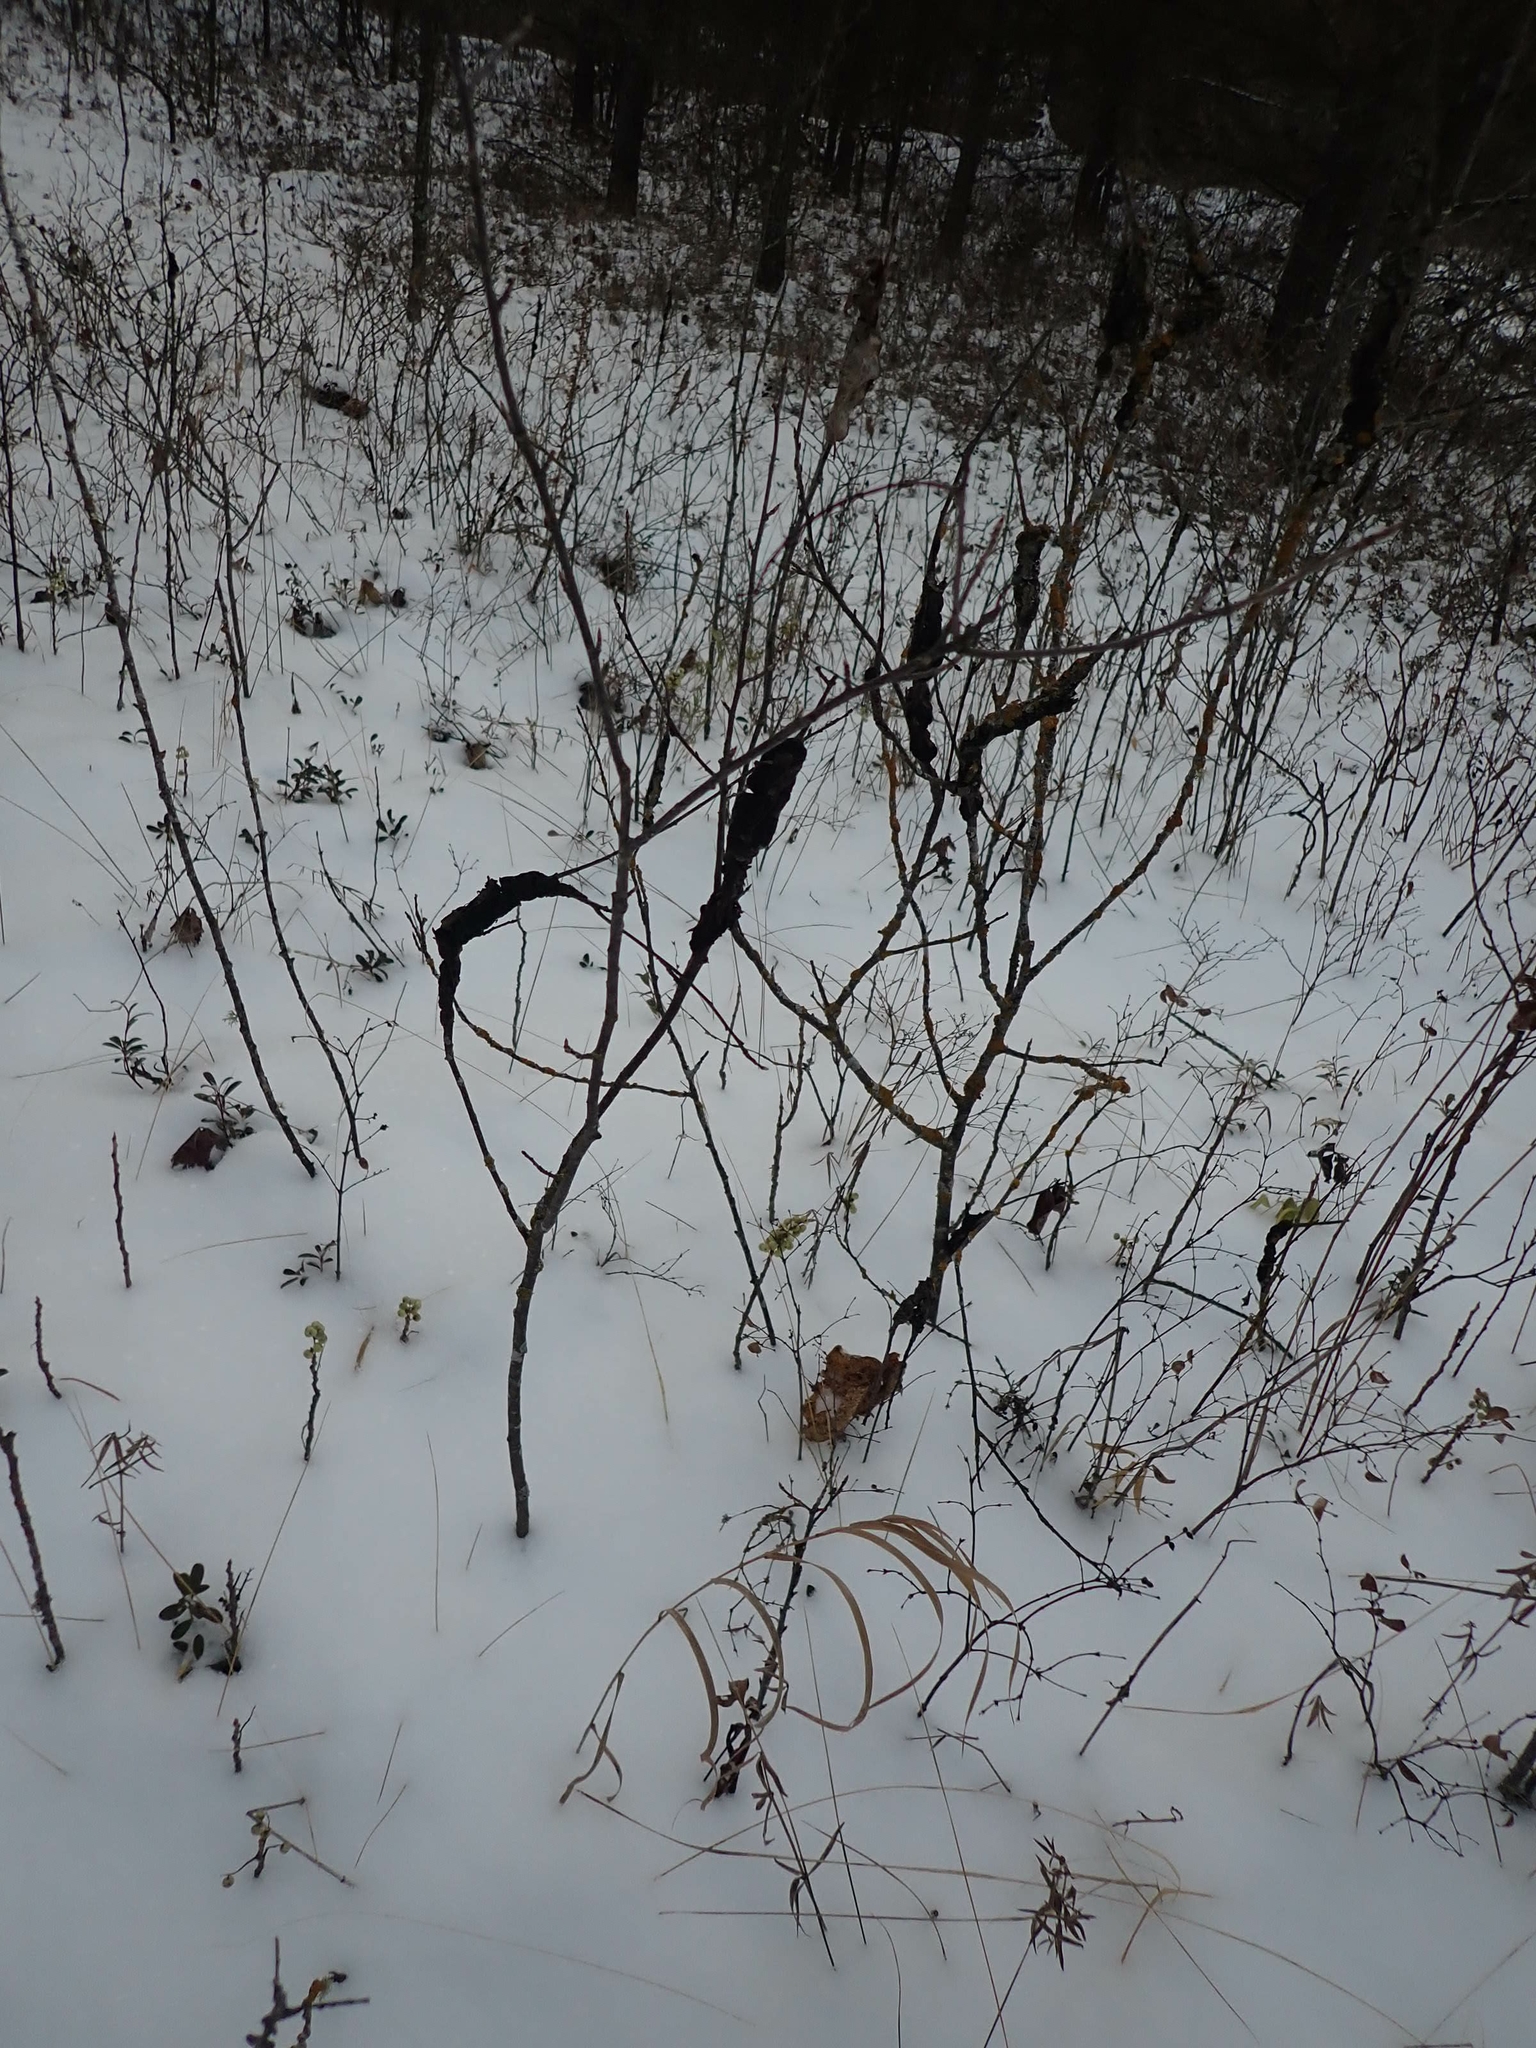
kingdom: Fungi
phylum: Ascomycota
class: Dothideomycetes
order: Venturiales
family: Venturiaceae
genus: Apiosporina
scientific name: Apiosporina morbosa
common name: Black knot
